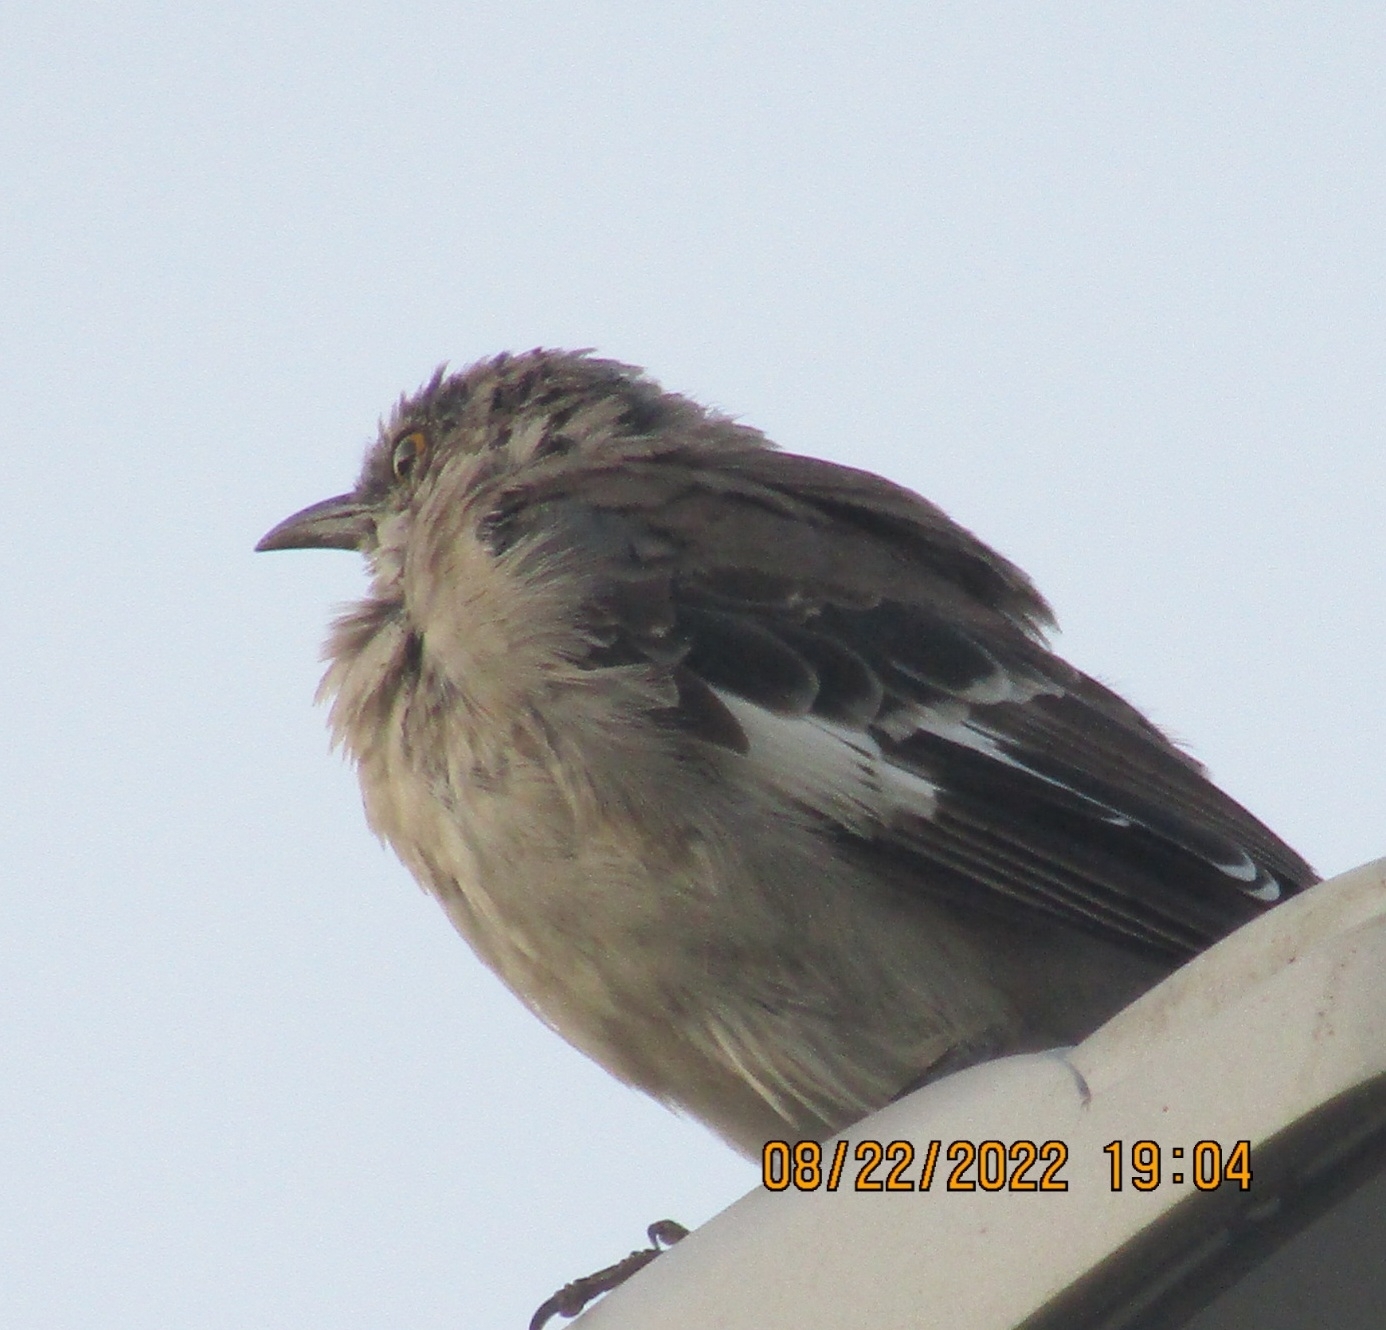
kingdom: Animalia
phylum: Chordata
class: Aves
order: Passeriformes
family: Mimidae
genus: Mimus
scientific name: Mimus polyglottos
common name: Northern mockingbird
